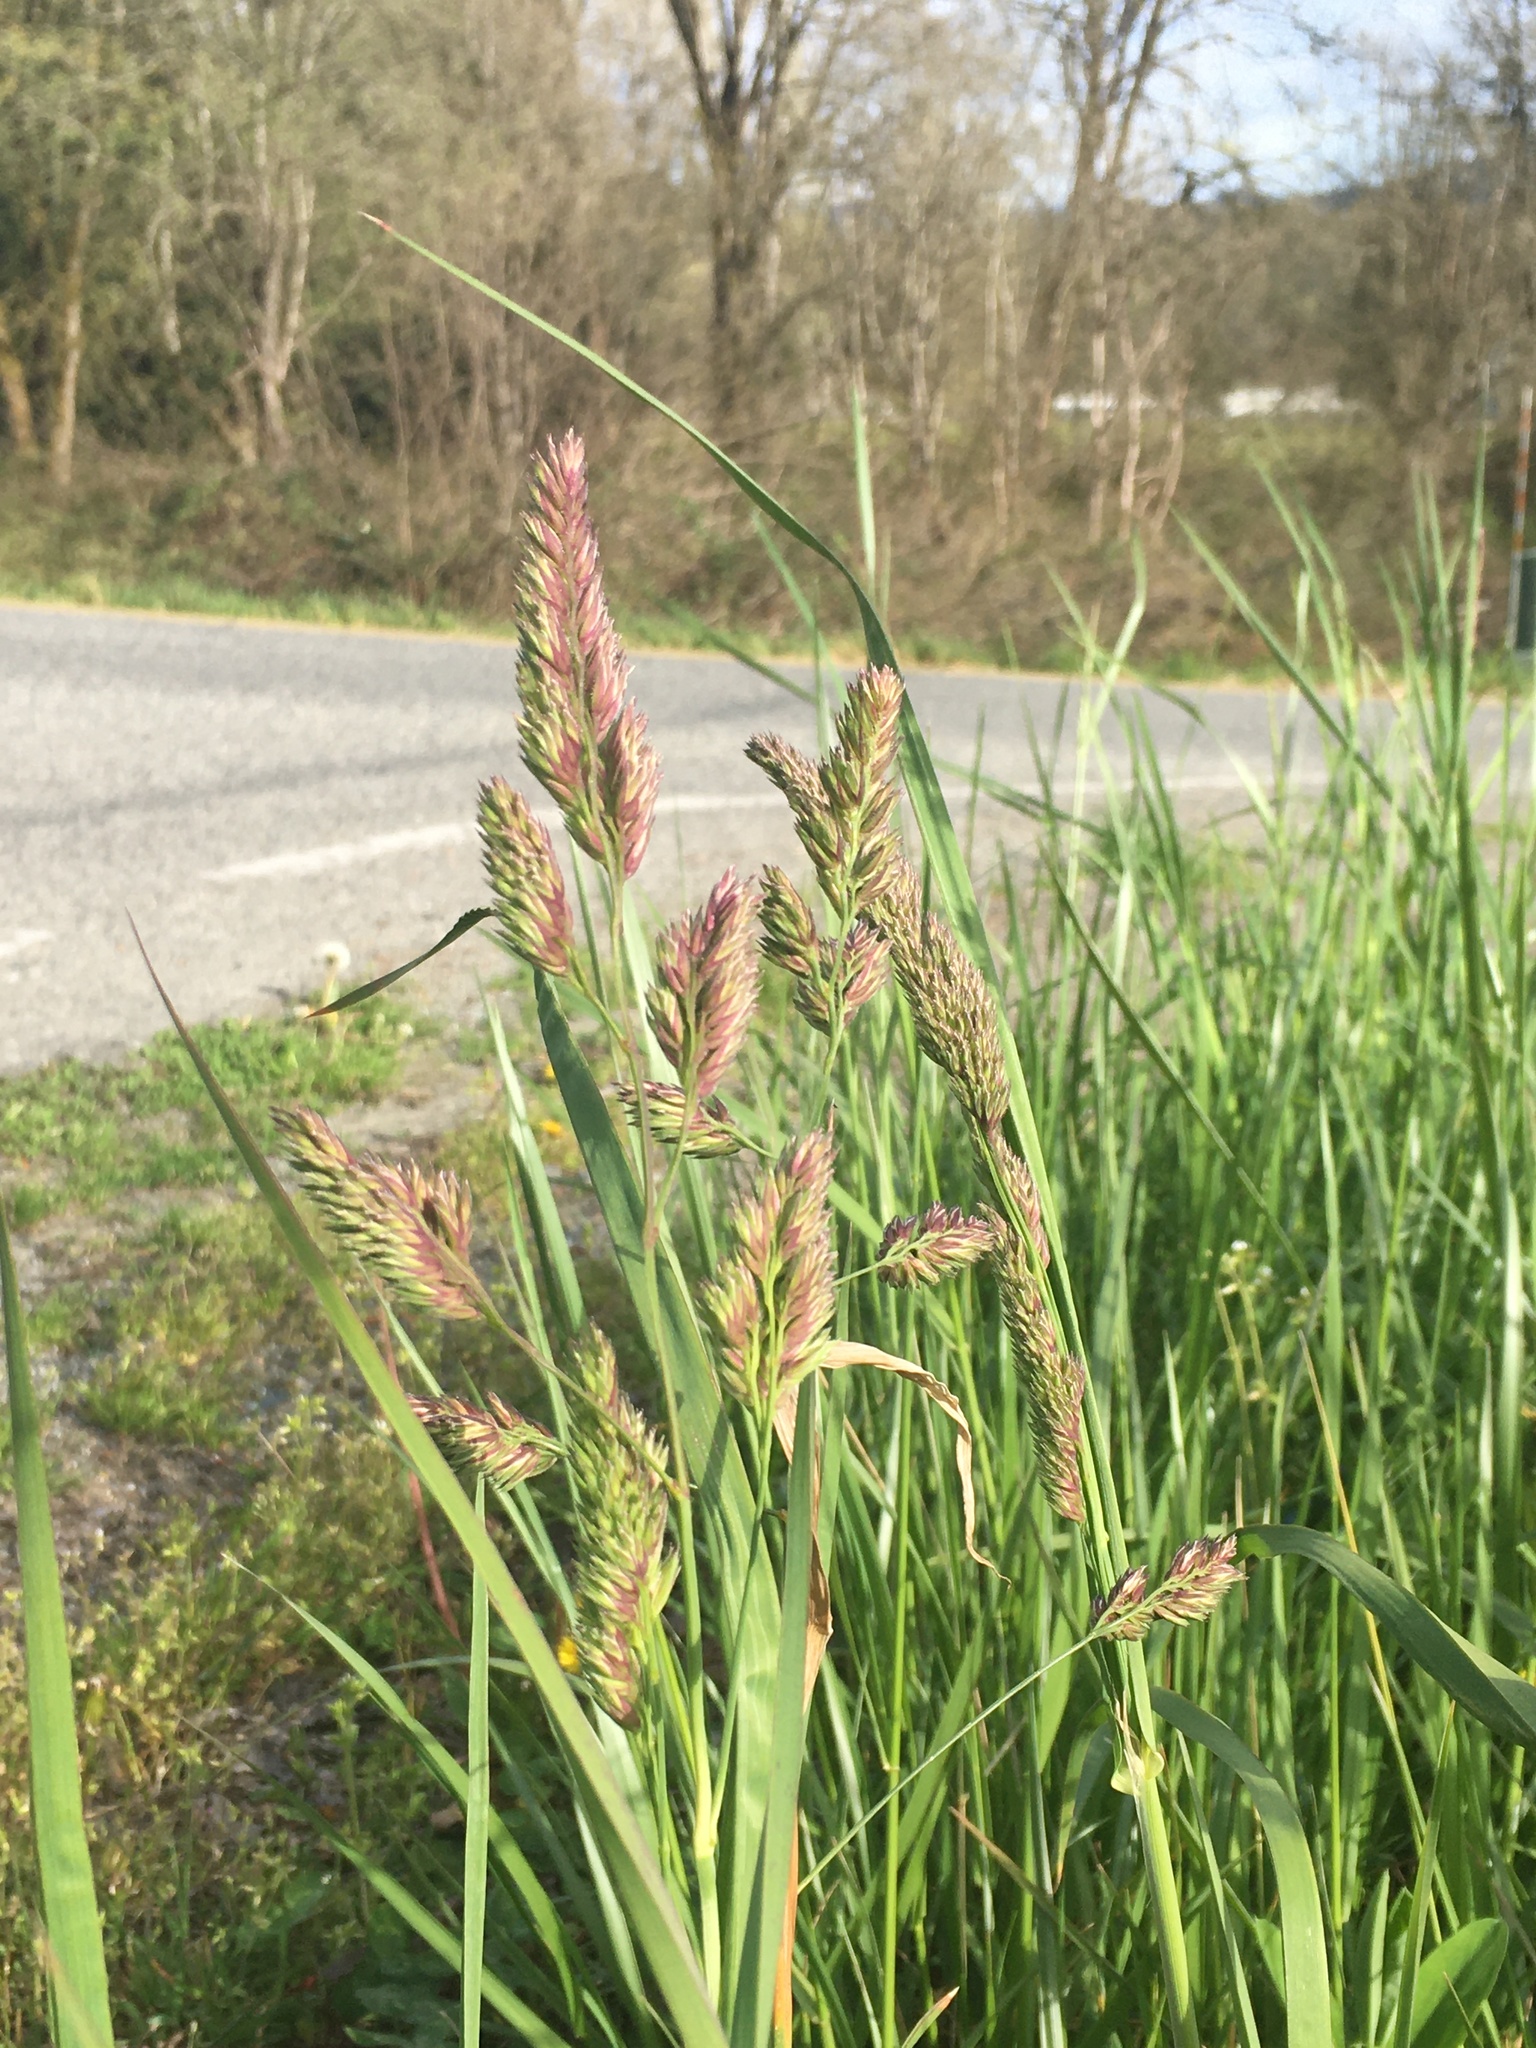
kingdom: Plantae
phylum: Tracheophyta
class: Liliopsida
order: Poales
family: Poaceae
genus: Dactylis
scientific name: Dactylis glomerata
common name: Orchardgrass
